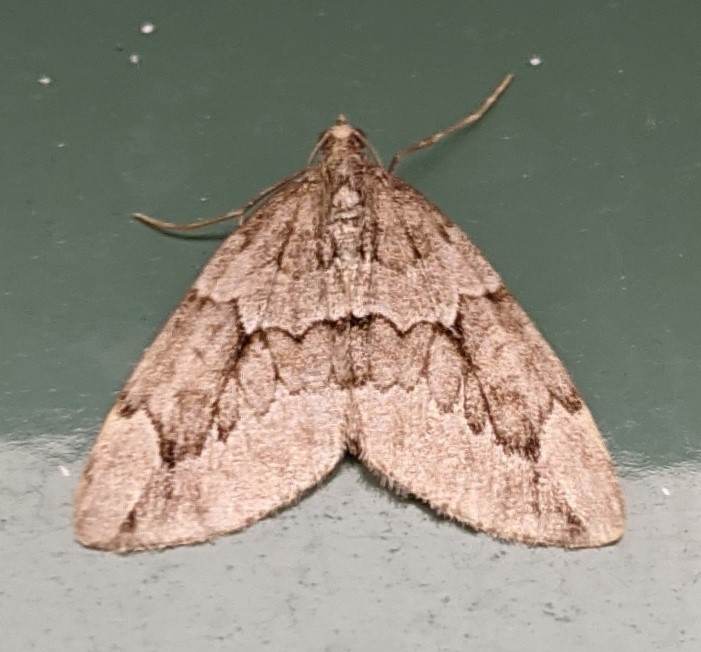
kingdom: Animalia
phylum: Arthropoda
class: Insecta
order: Lepidoptera
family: Geometridae
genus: Thera
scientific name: Thera juniperata
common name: Juniper carpet
